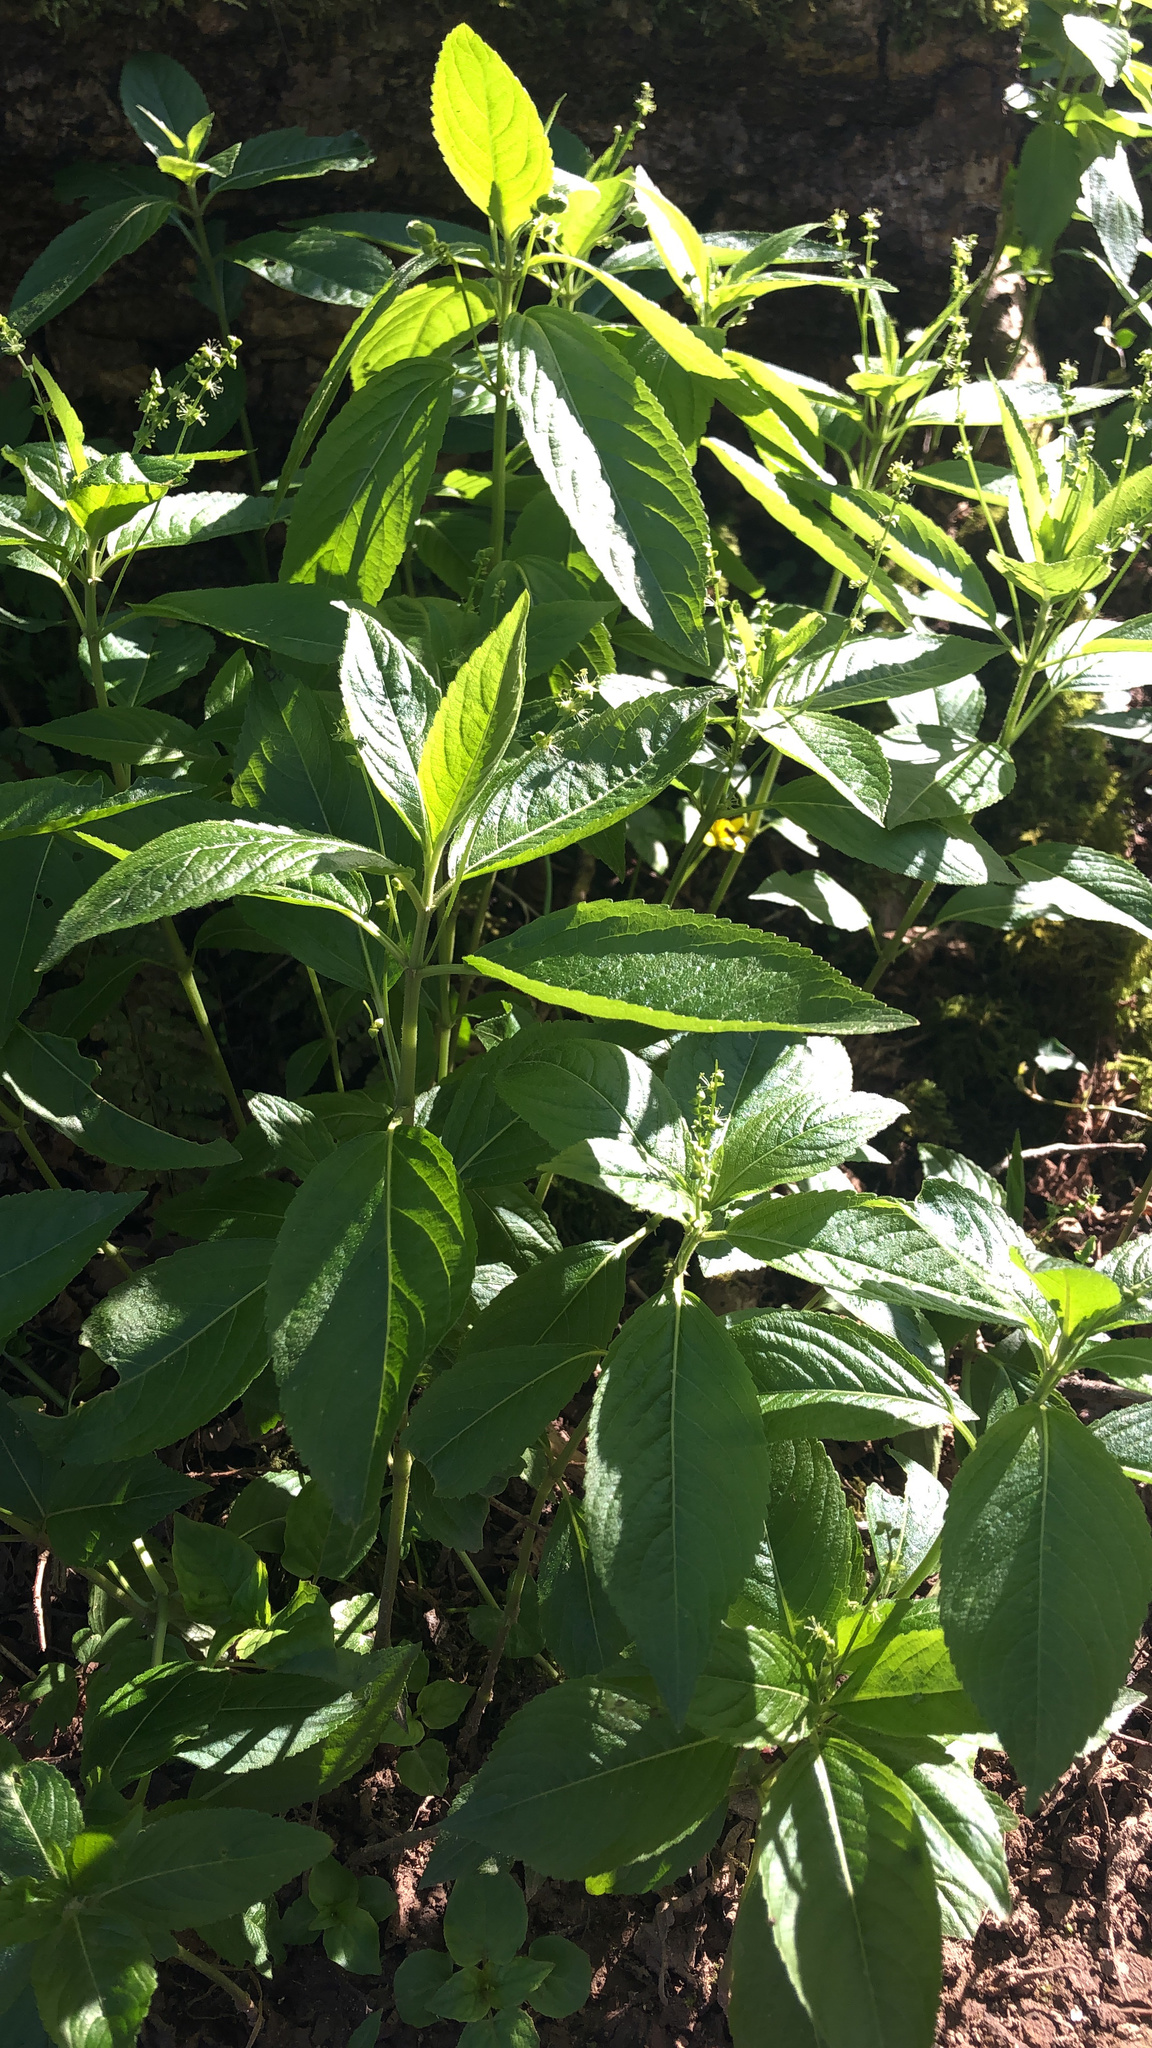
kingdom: Plantae
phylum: Tracheophyta
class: Magnoliopsida
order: Malpighiales
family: Euphorbiaceae
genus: Mercurialis
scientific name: Mercurialis perennis
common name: Dog mercury
